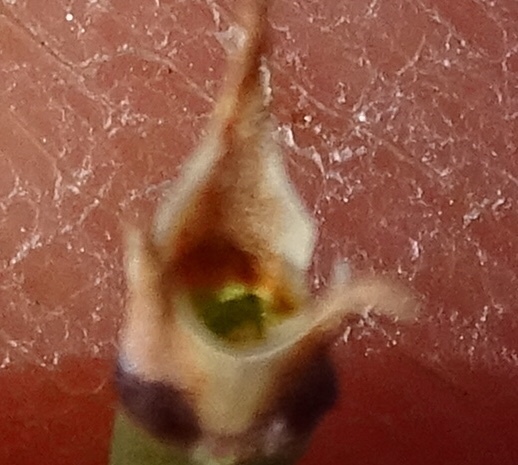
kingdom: Plantae
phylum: Tracheophyta
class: Gnetopsida
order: Ephedrales
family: Ephedraceae
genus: Ephedra
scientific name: Ephedra californica
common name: California ephedra
